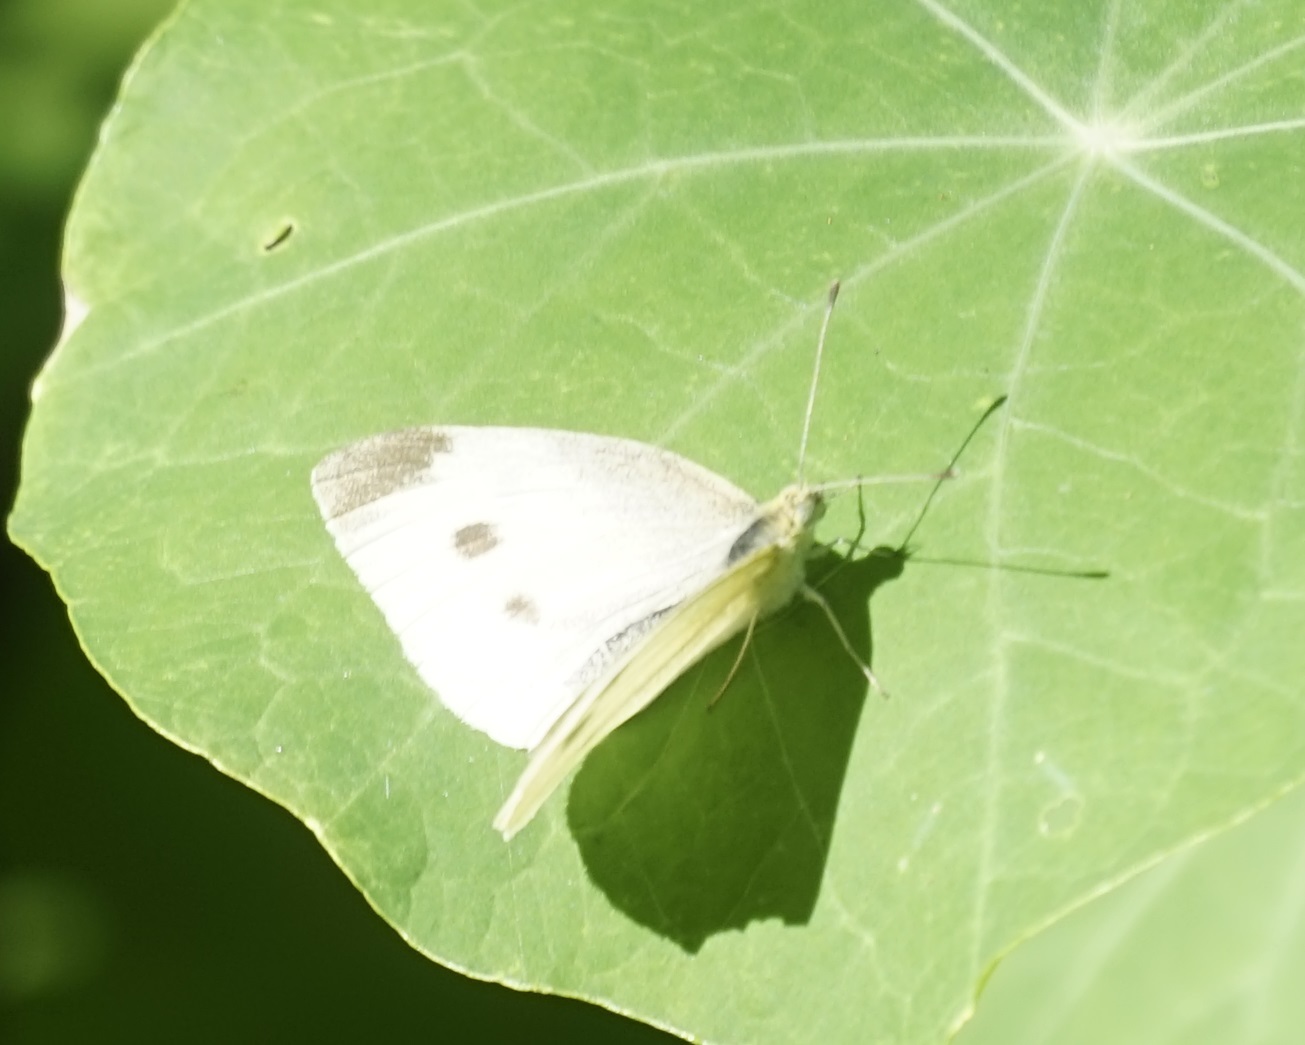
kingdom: Animalia
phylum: Arthropoda
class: Insecta
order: Lepidoptera
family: Pieridae
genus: Pieris
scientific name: Pieris rapae
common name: Small white
